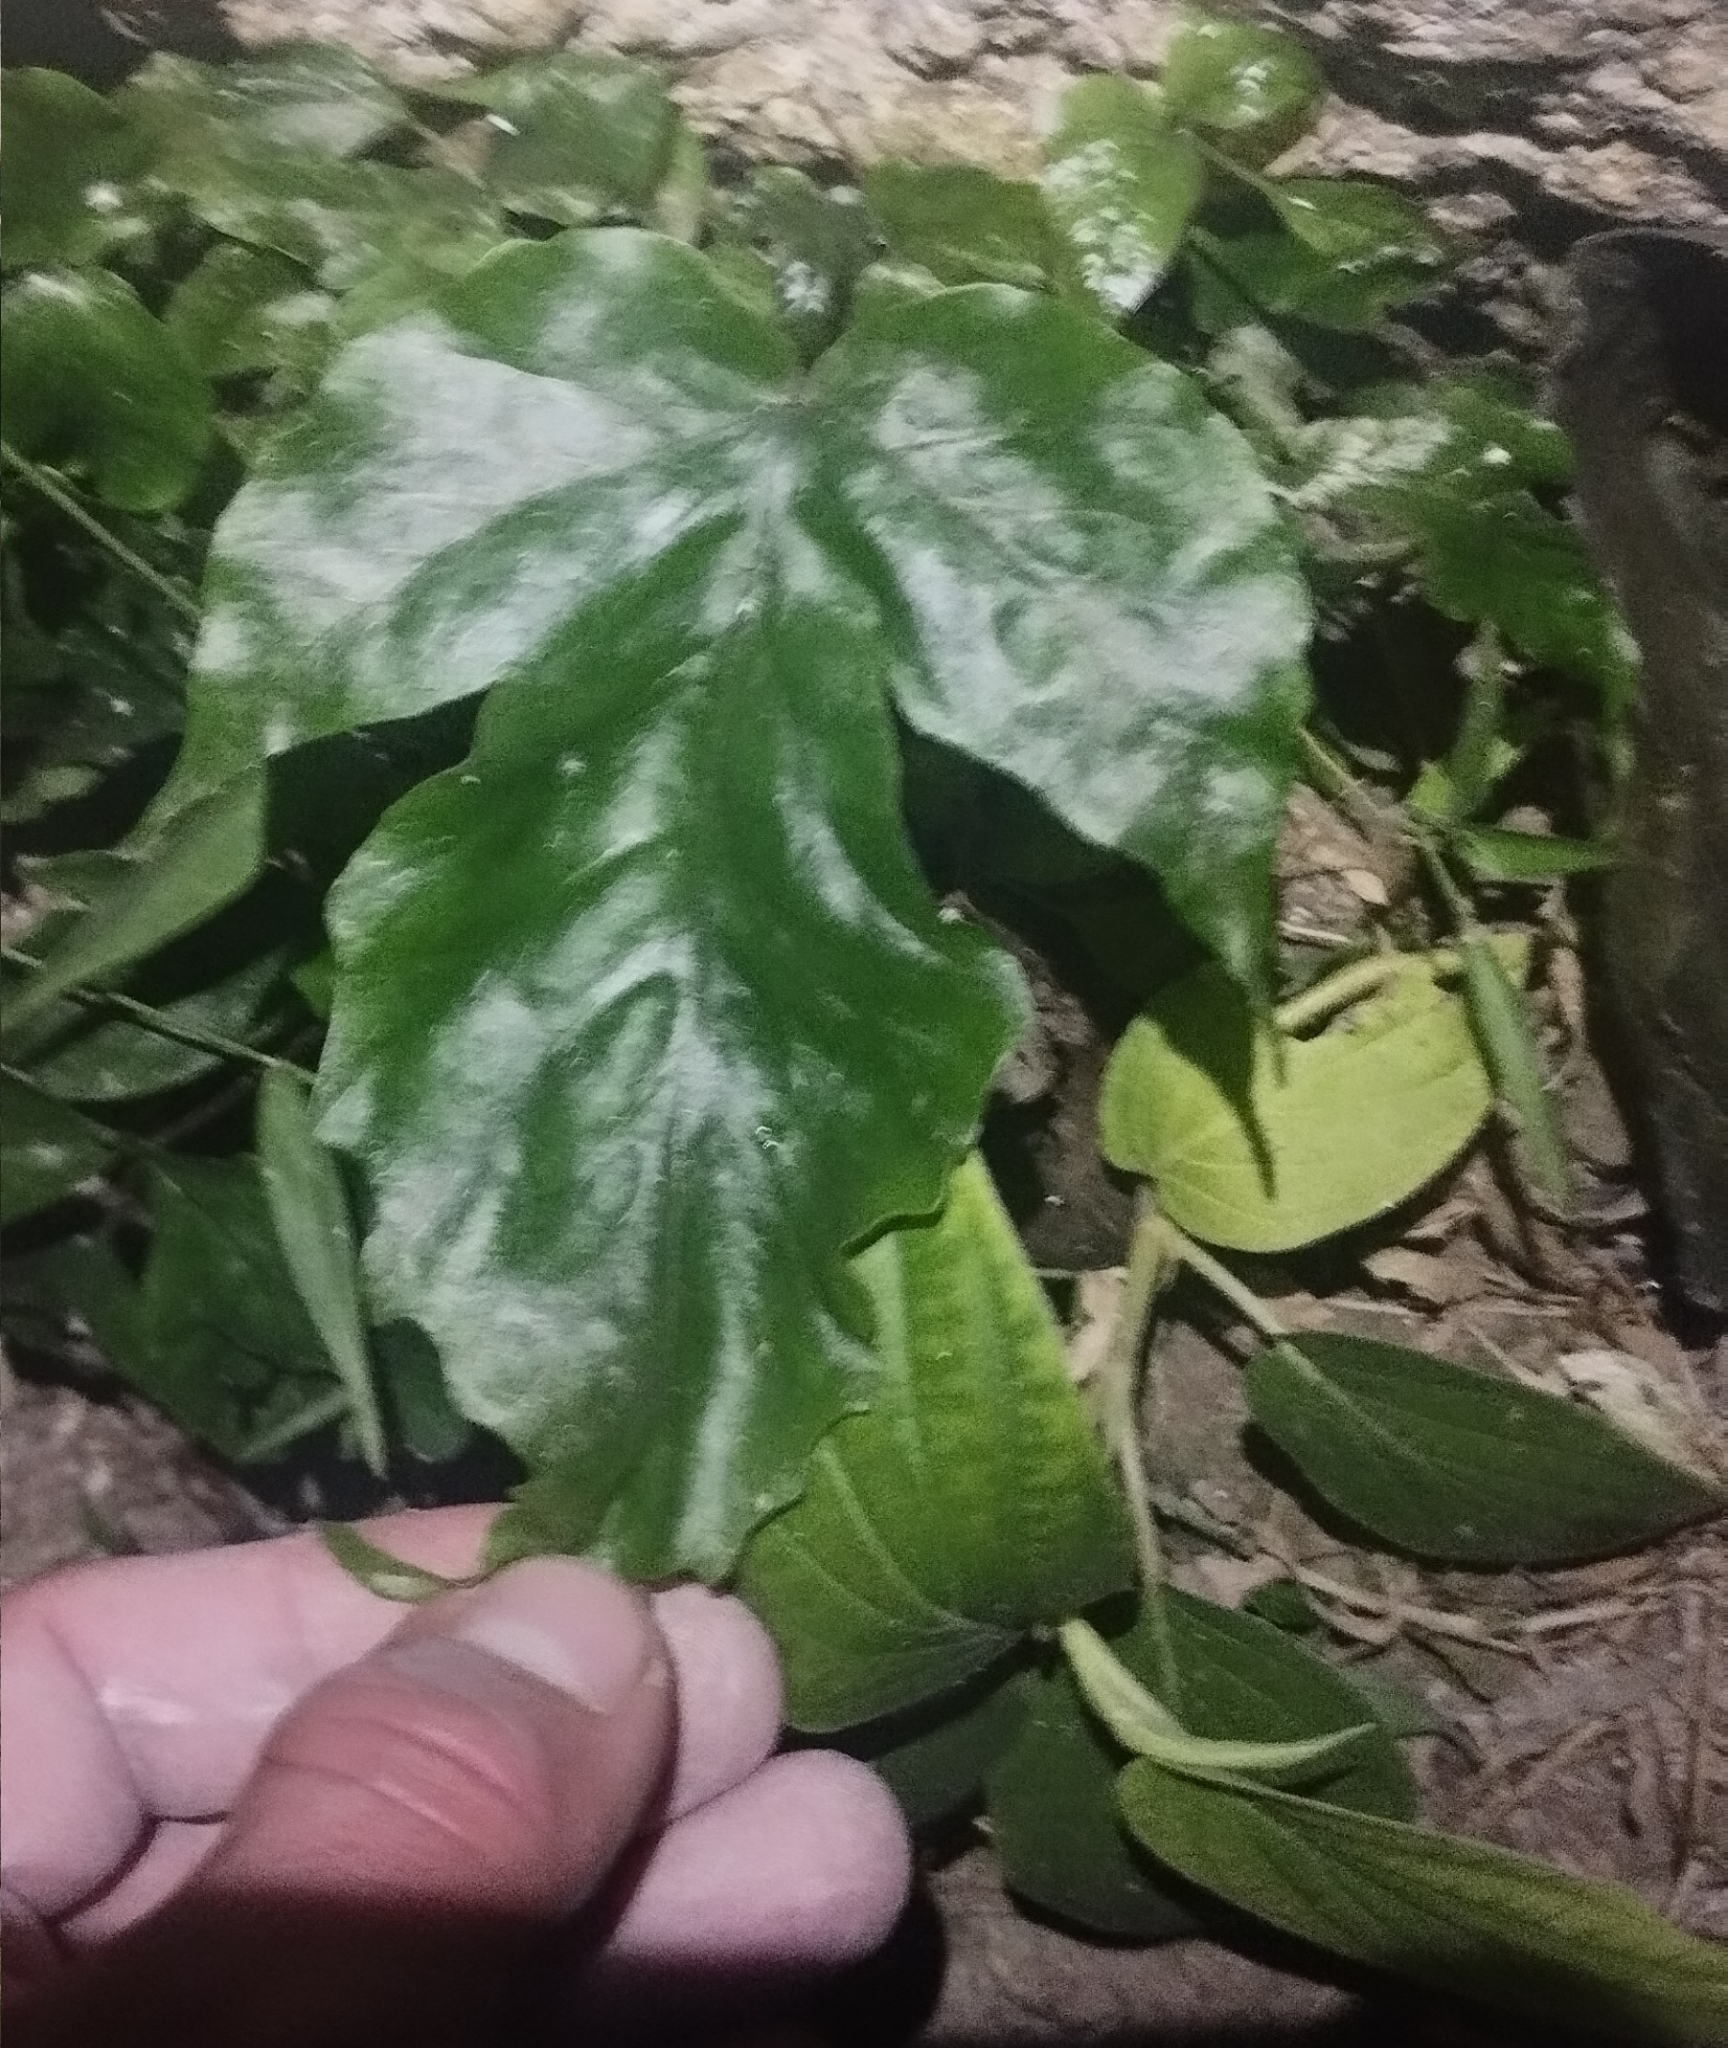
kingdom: Plantae
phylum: Tracheophyta
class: Polypodiopsida
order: Polypodiales
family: Tectariaceae
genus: Tectaria
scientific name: Tectaria heracleifolia
